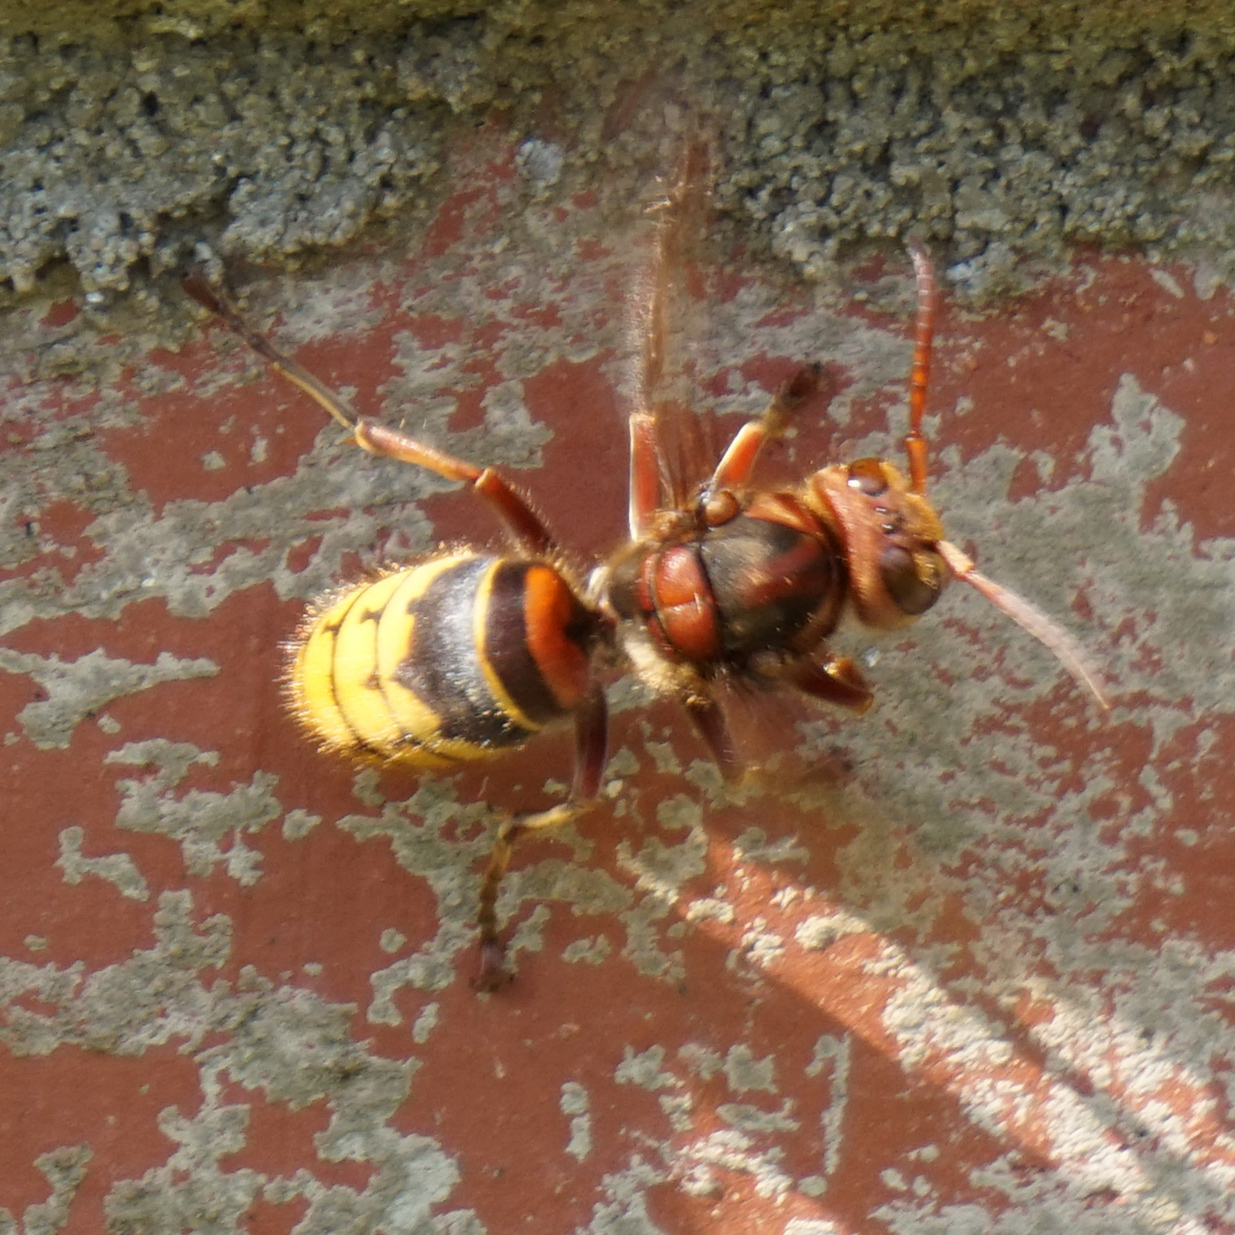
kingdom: Animalia
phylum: Arthropoda
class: Insecta
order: Hymenoptera
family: Vespidae
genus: Vespa
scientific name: Vespa crabro
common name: Hornet
